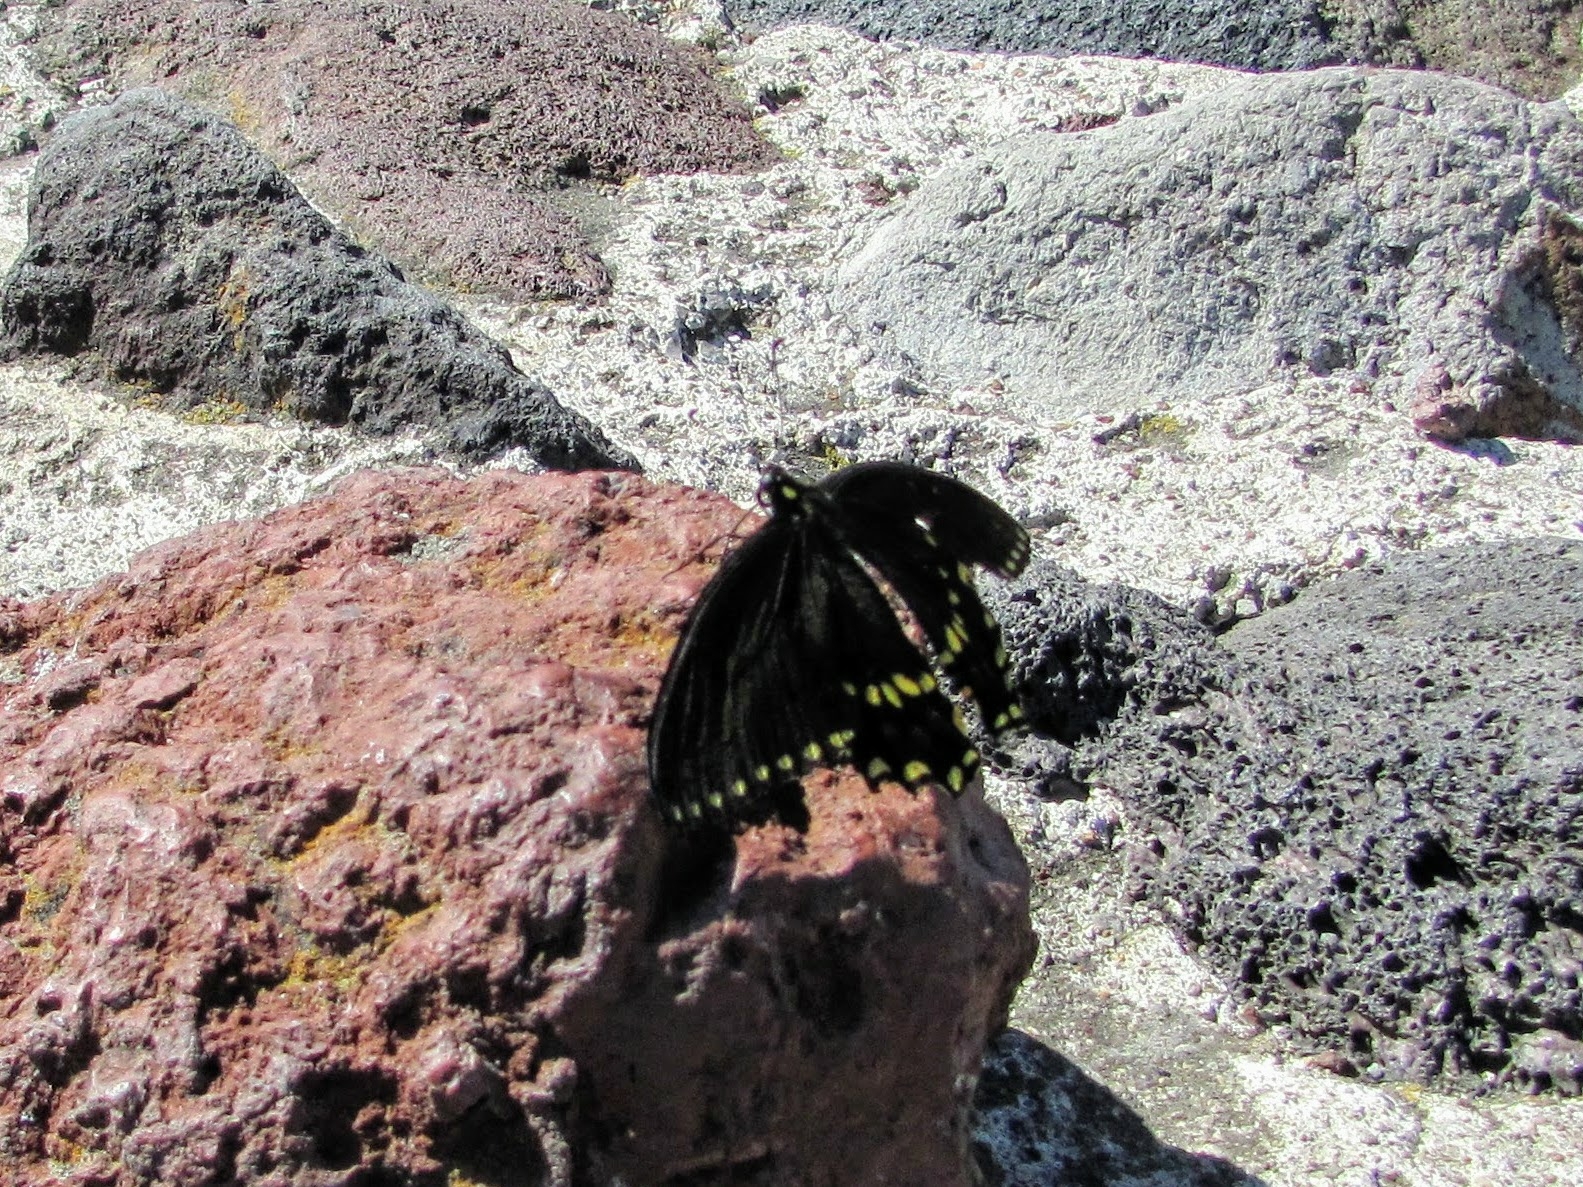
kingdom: Animalia
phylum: Arthropoda
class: Insecta
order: Lepidoptera
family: Papilionidae
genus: Papilio
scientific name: Papilio polyxenes
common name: Black swallowtail
